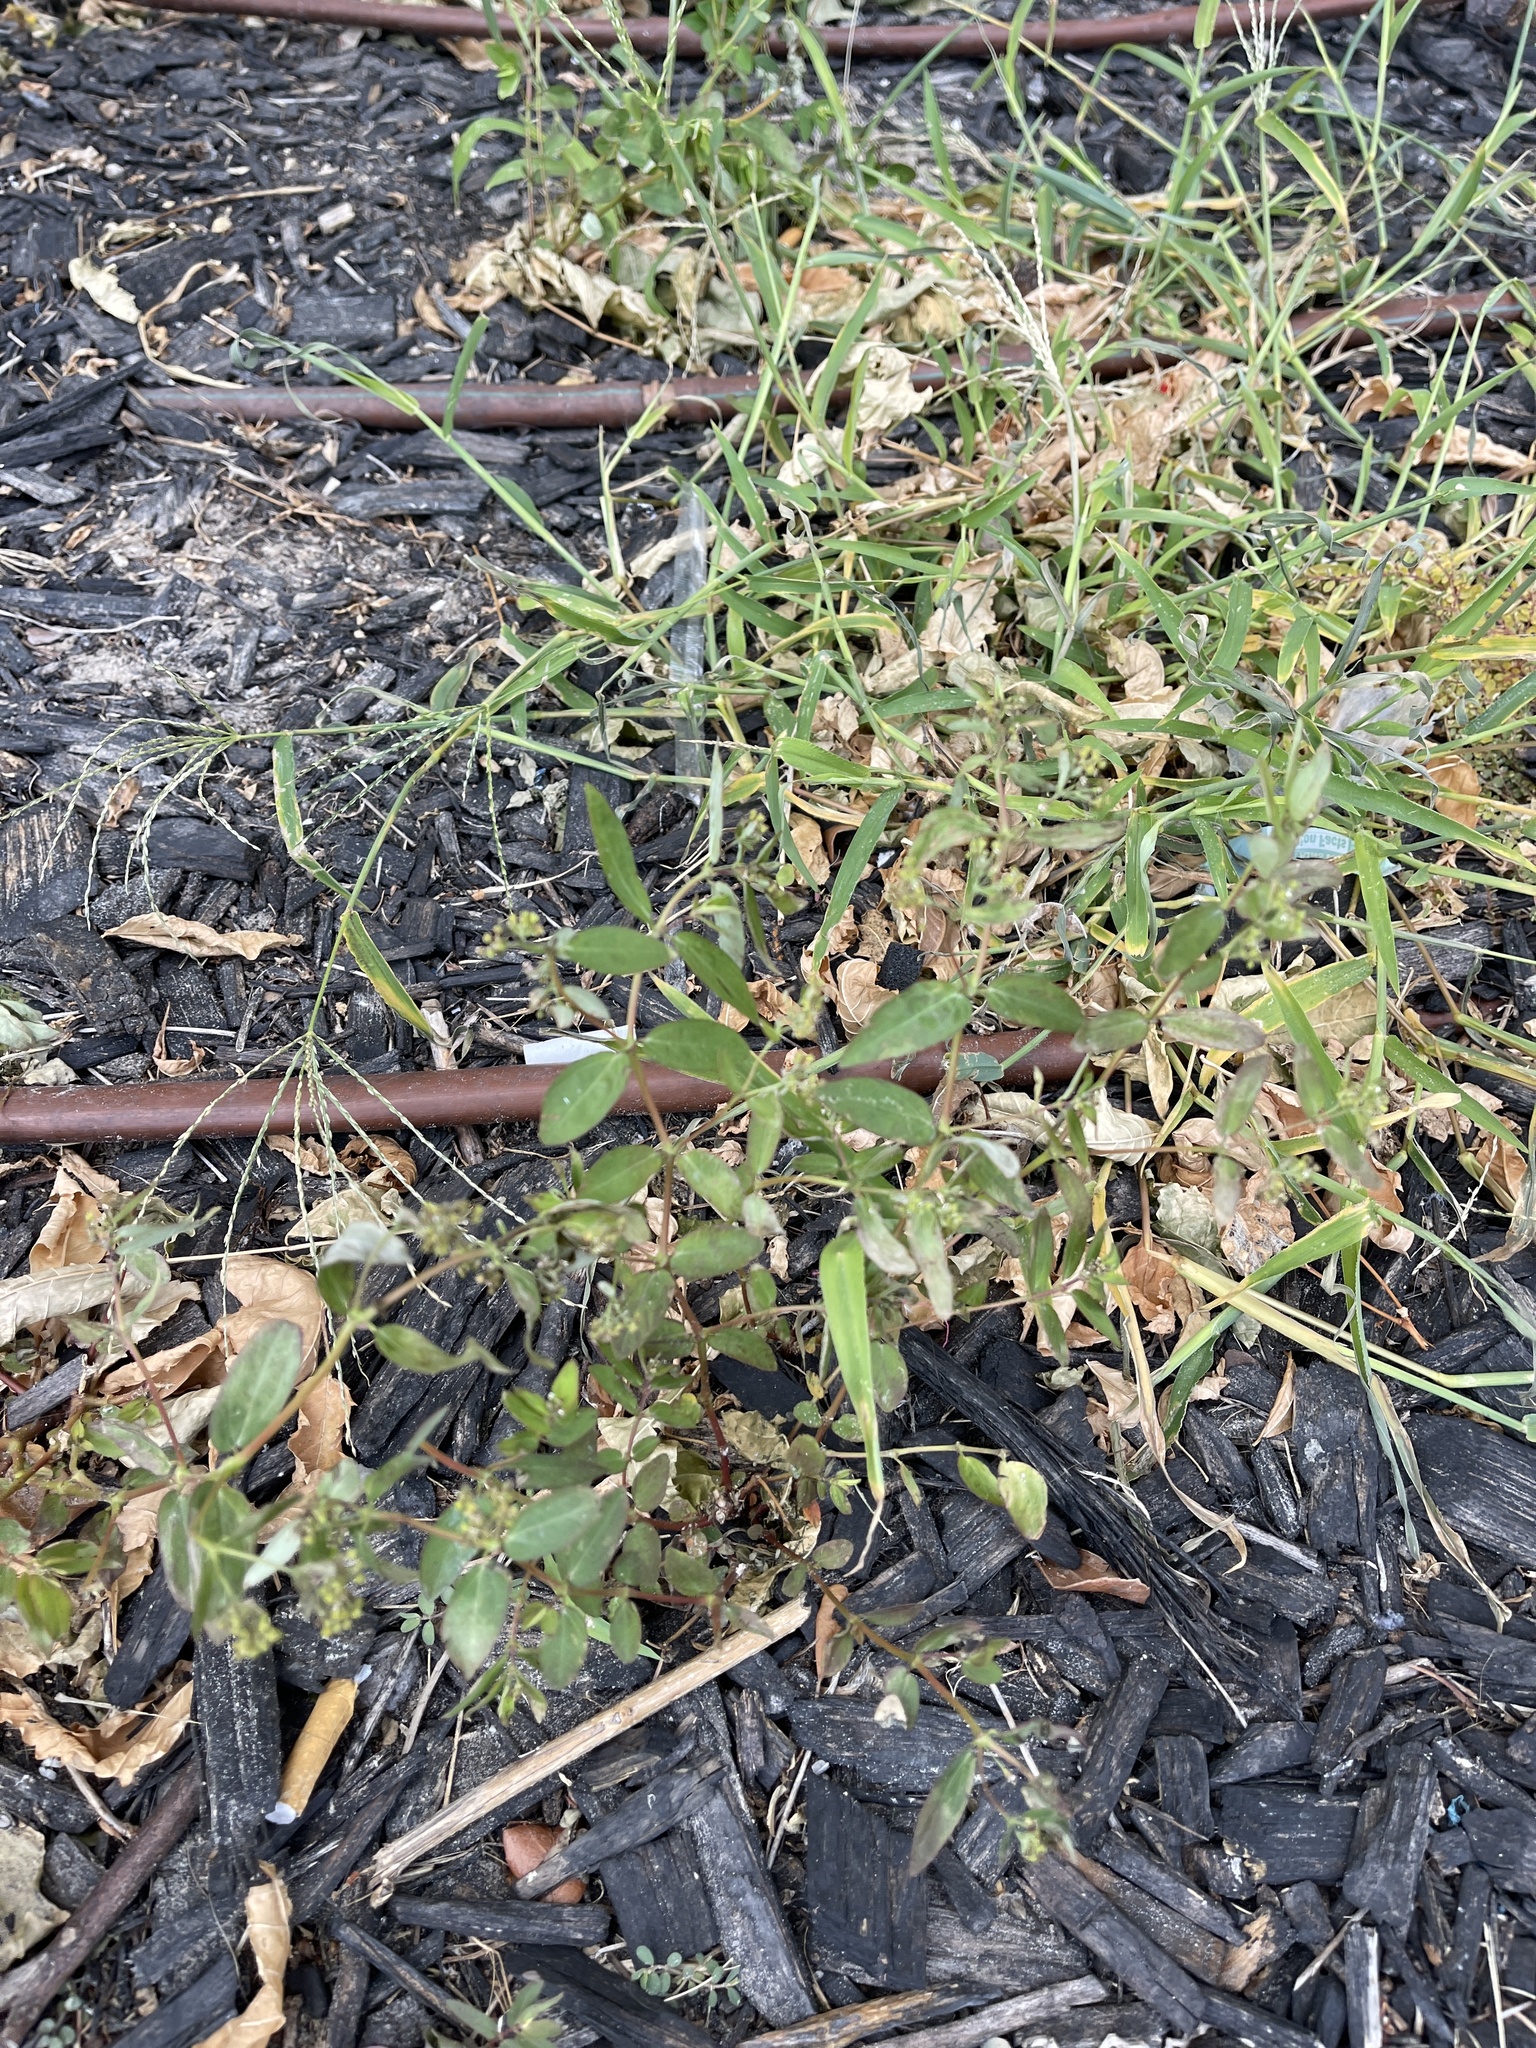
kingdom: Plantae
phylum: Tracheophyta
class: Magnoliopsida
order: Malpighiales
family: Euphorbiaceae
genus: Euphorbia
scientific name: Euphorbia hypericifolia
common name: Graceful sandmat
